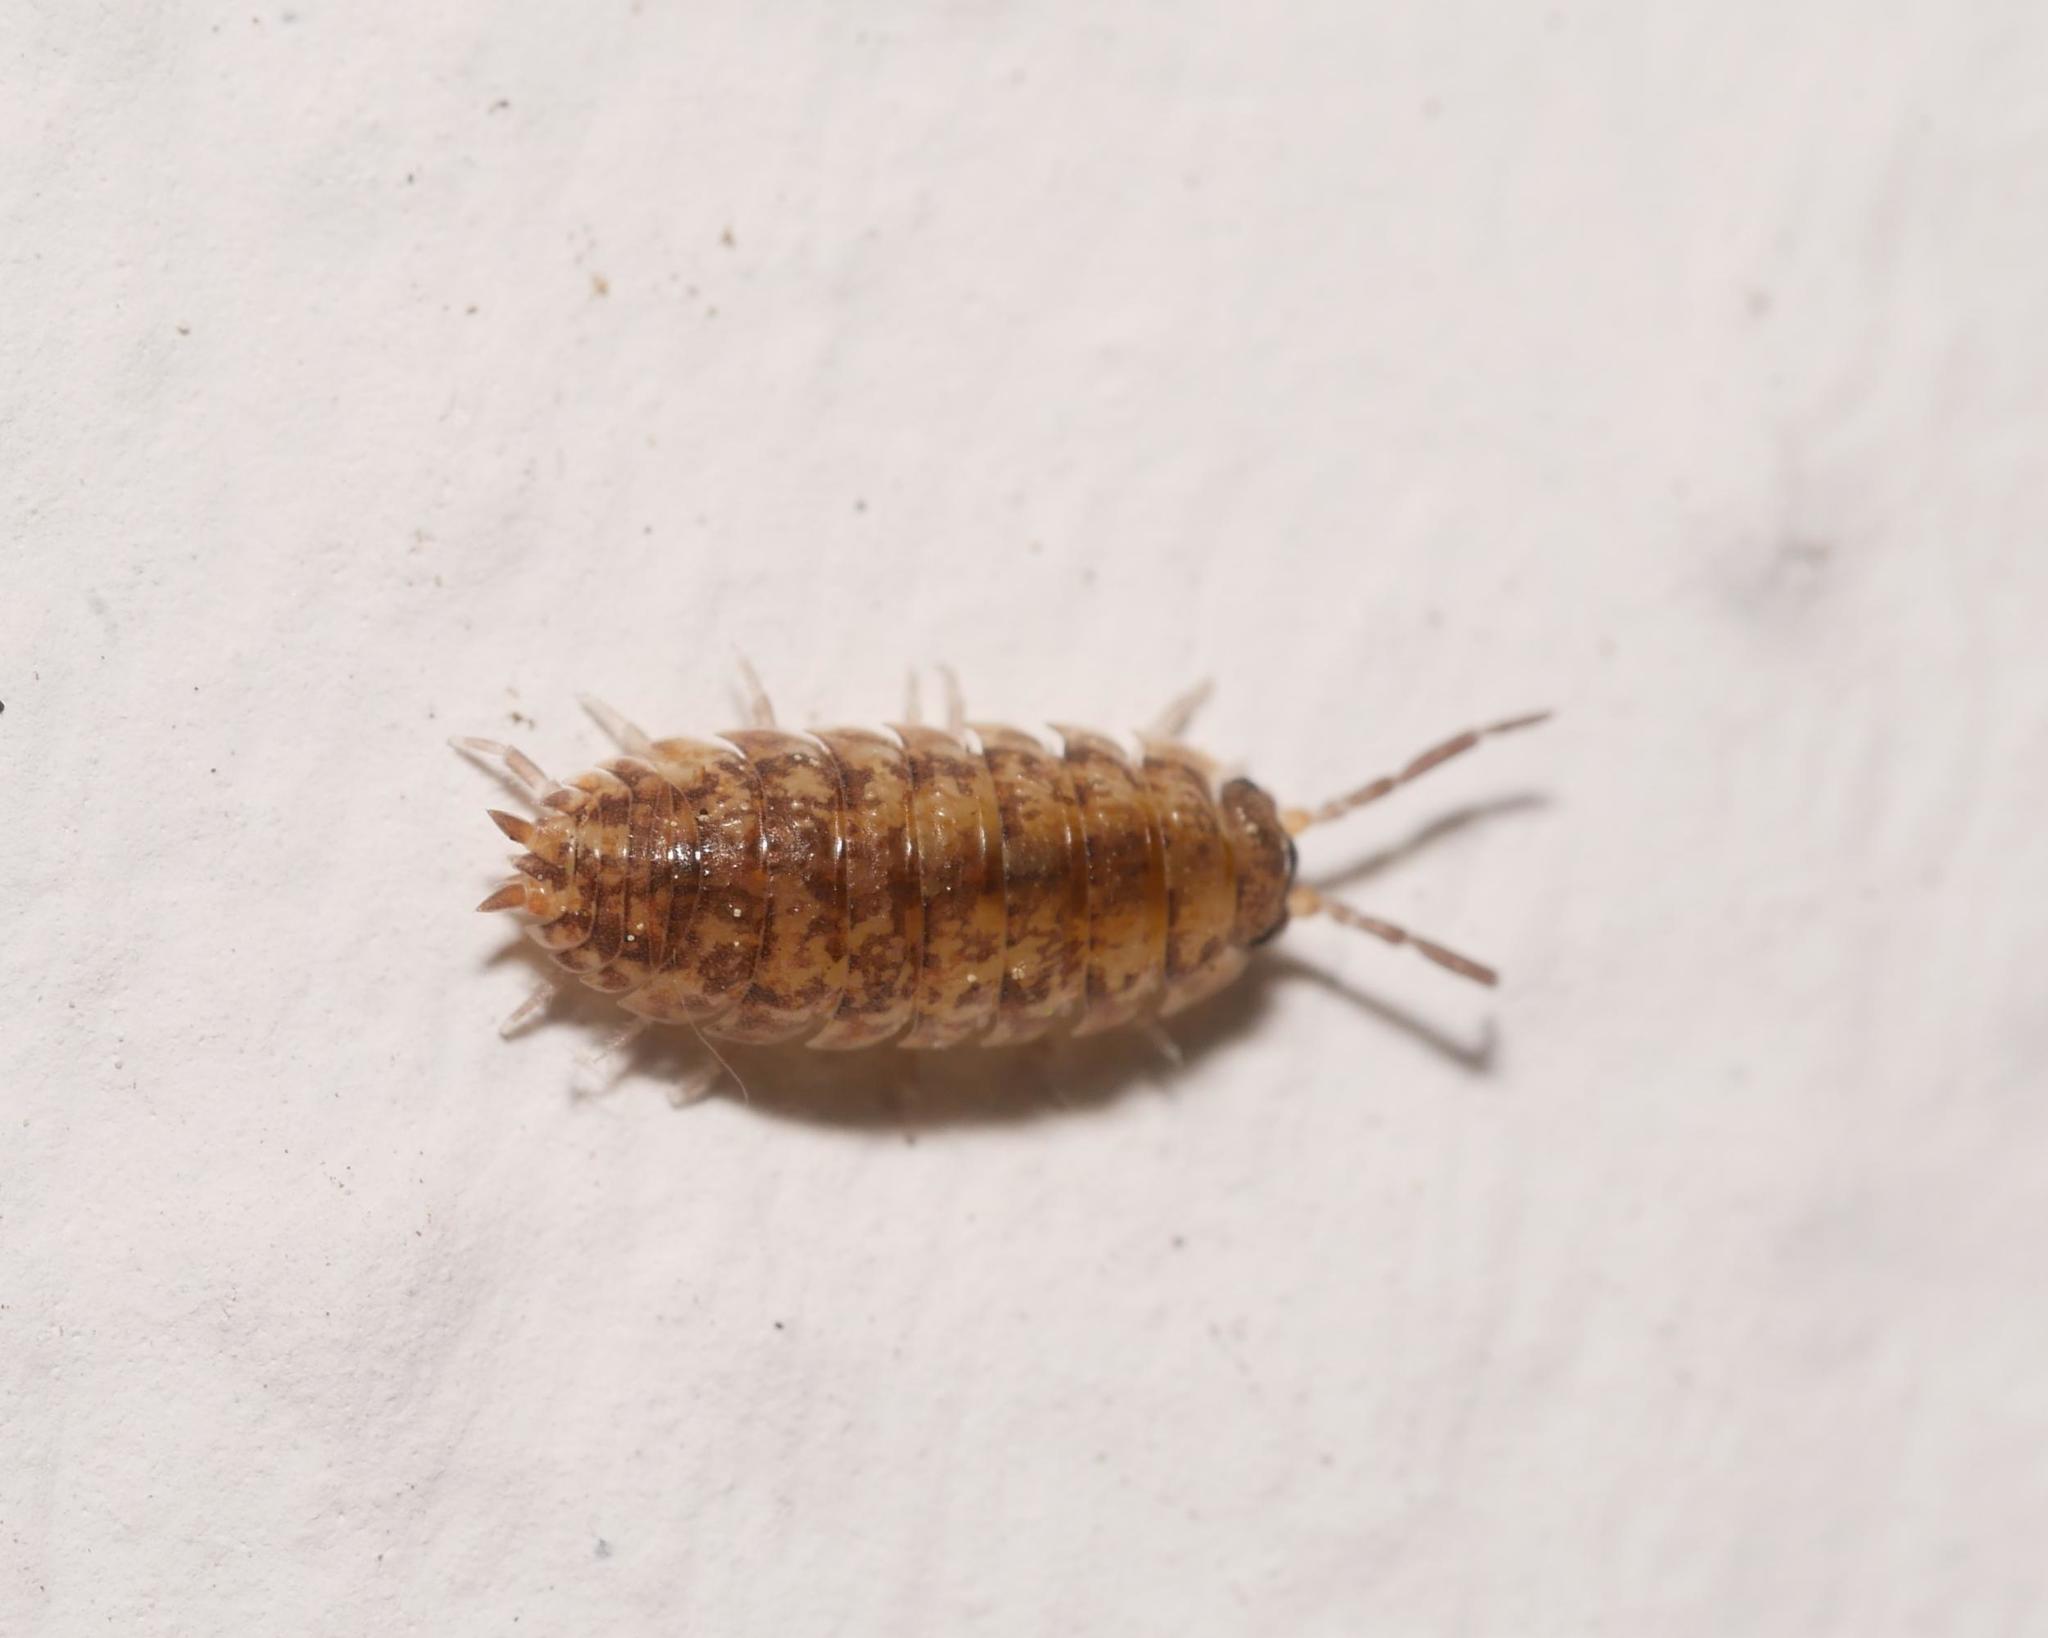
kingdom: Animalia
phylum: Arthropoda
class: Malacostraca
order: Isopoda
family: Porcellionidae
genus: Porcellio
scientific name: Porcellio scaber
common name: Common rough woodlouse
